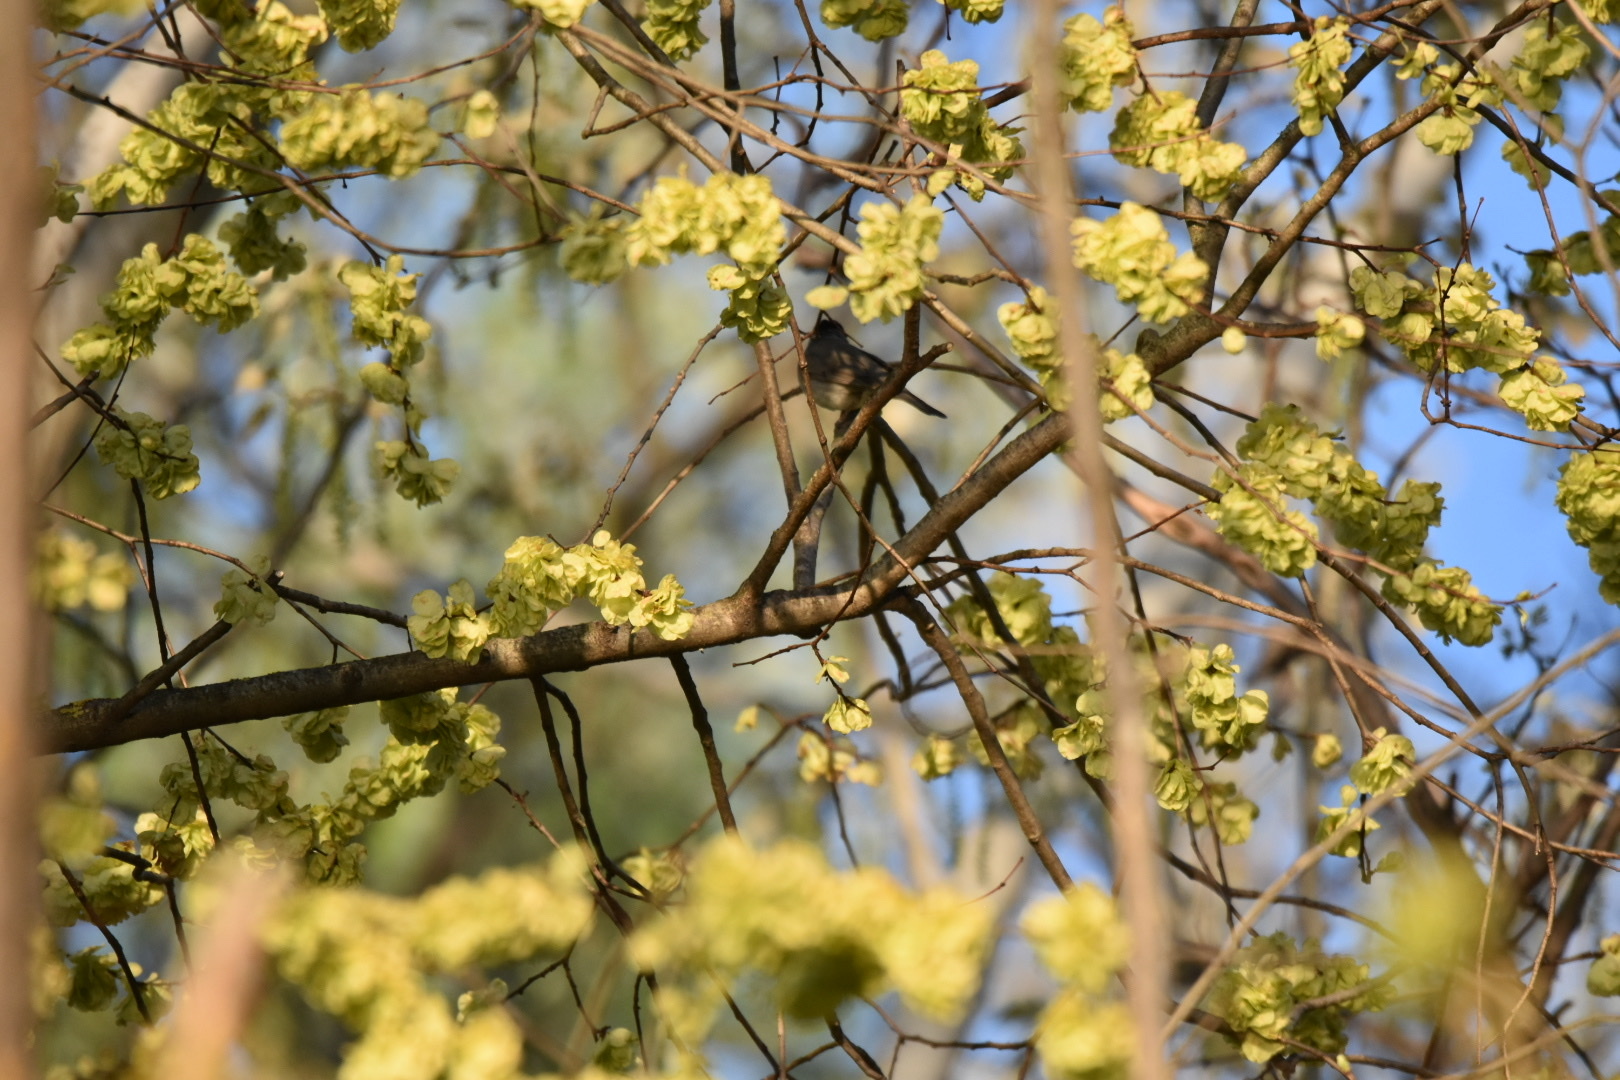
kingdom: Animalia
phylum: Chordata
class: Aves
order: Passeriformes
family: Sylviidae
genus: Sylvia
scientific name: Sylvia atricapilla
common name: Eurasian blackcap
